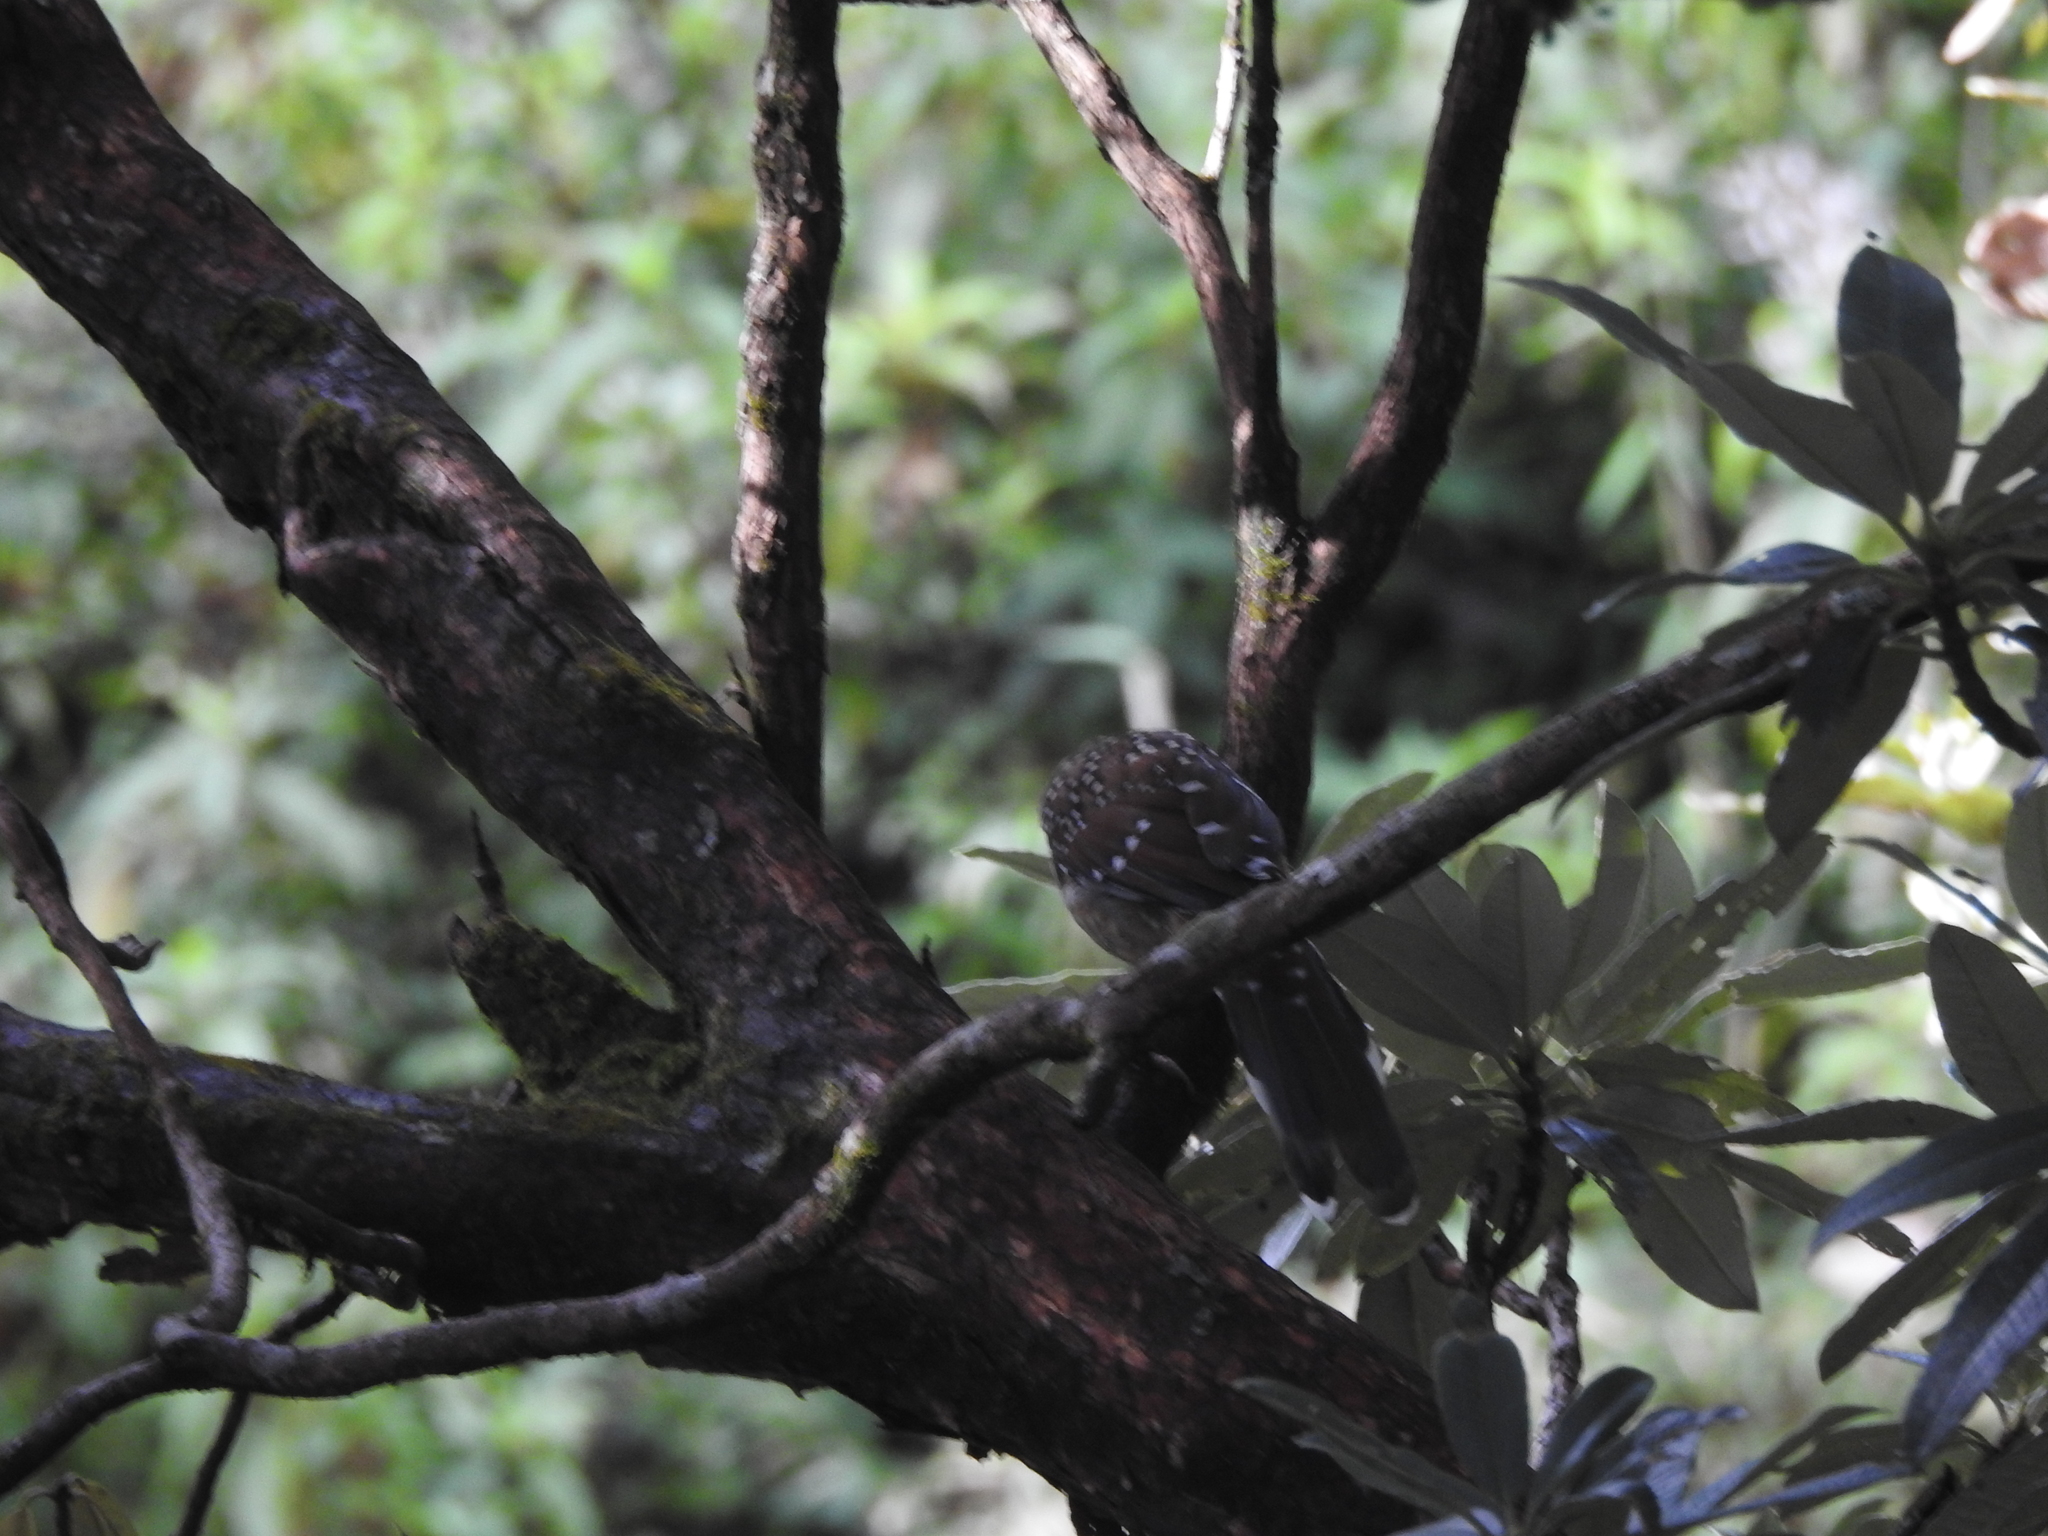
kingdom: Animalia
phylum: Chordata
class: Aves
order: Passeriformes
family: Leiothrichidae
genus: Garrulax
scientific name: Garrulax ocellatus
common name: Spotted laughingthrush
